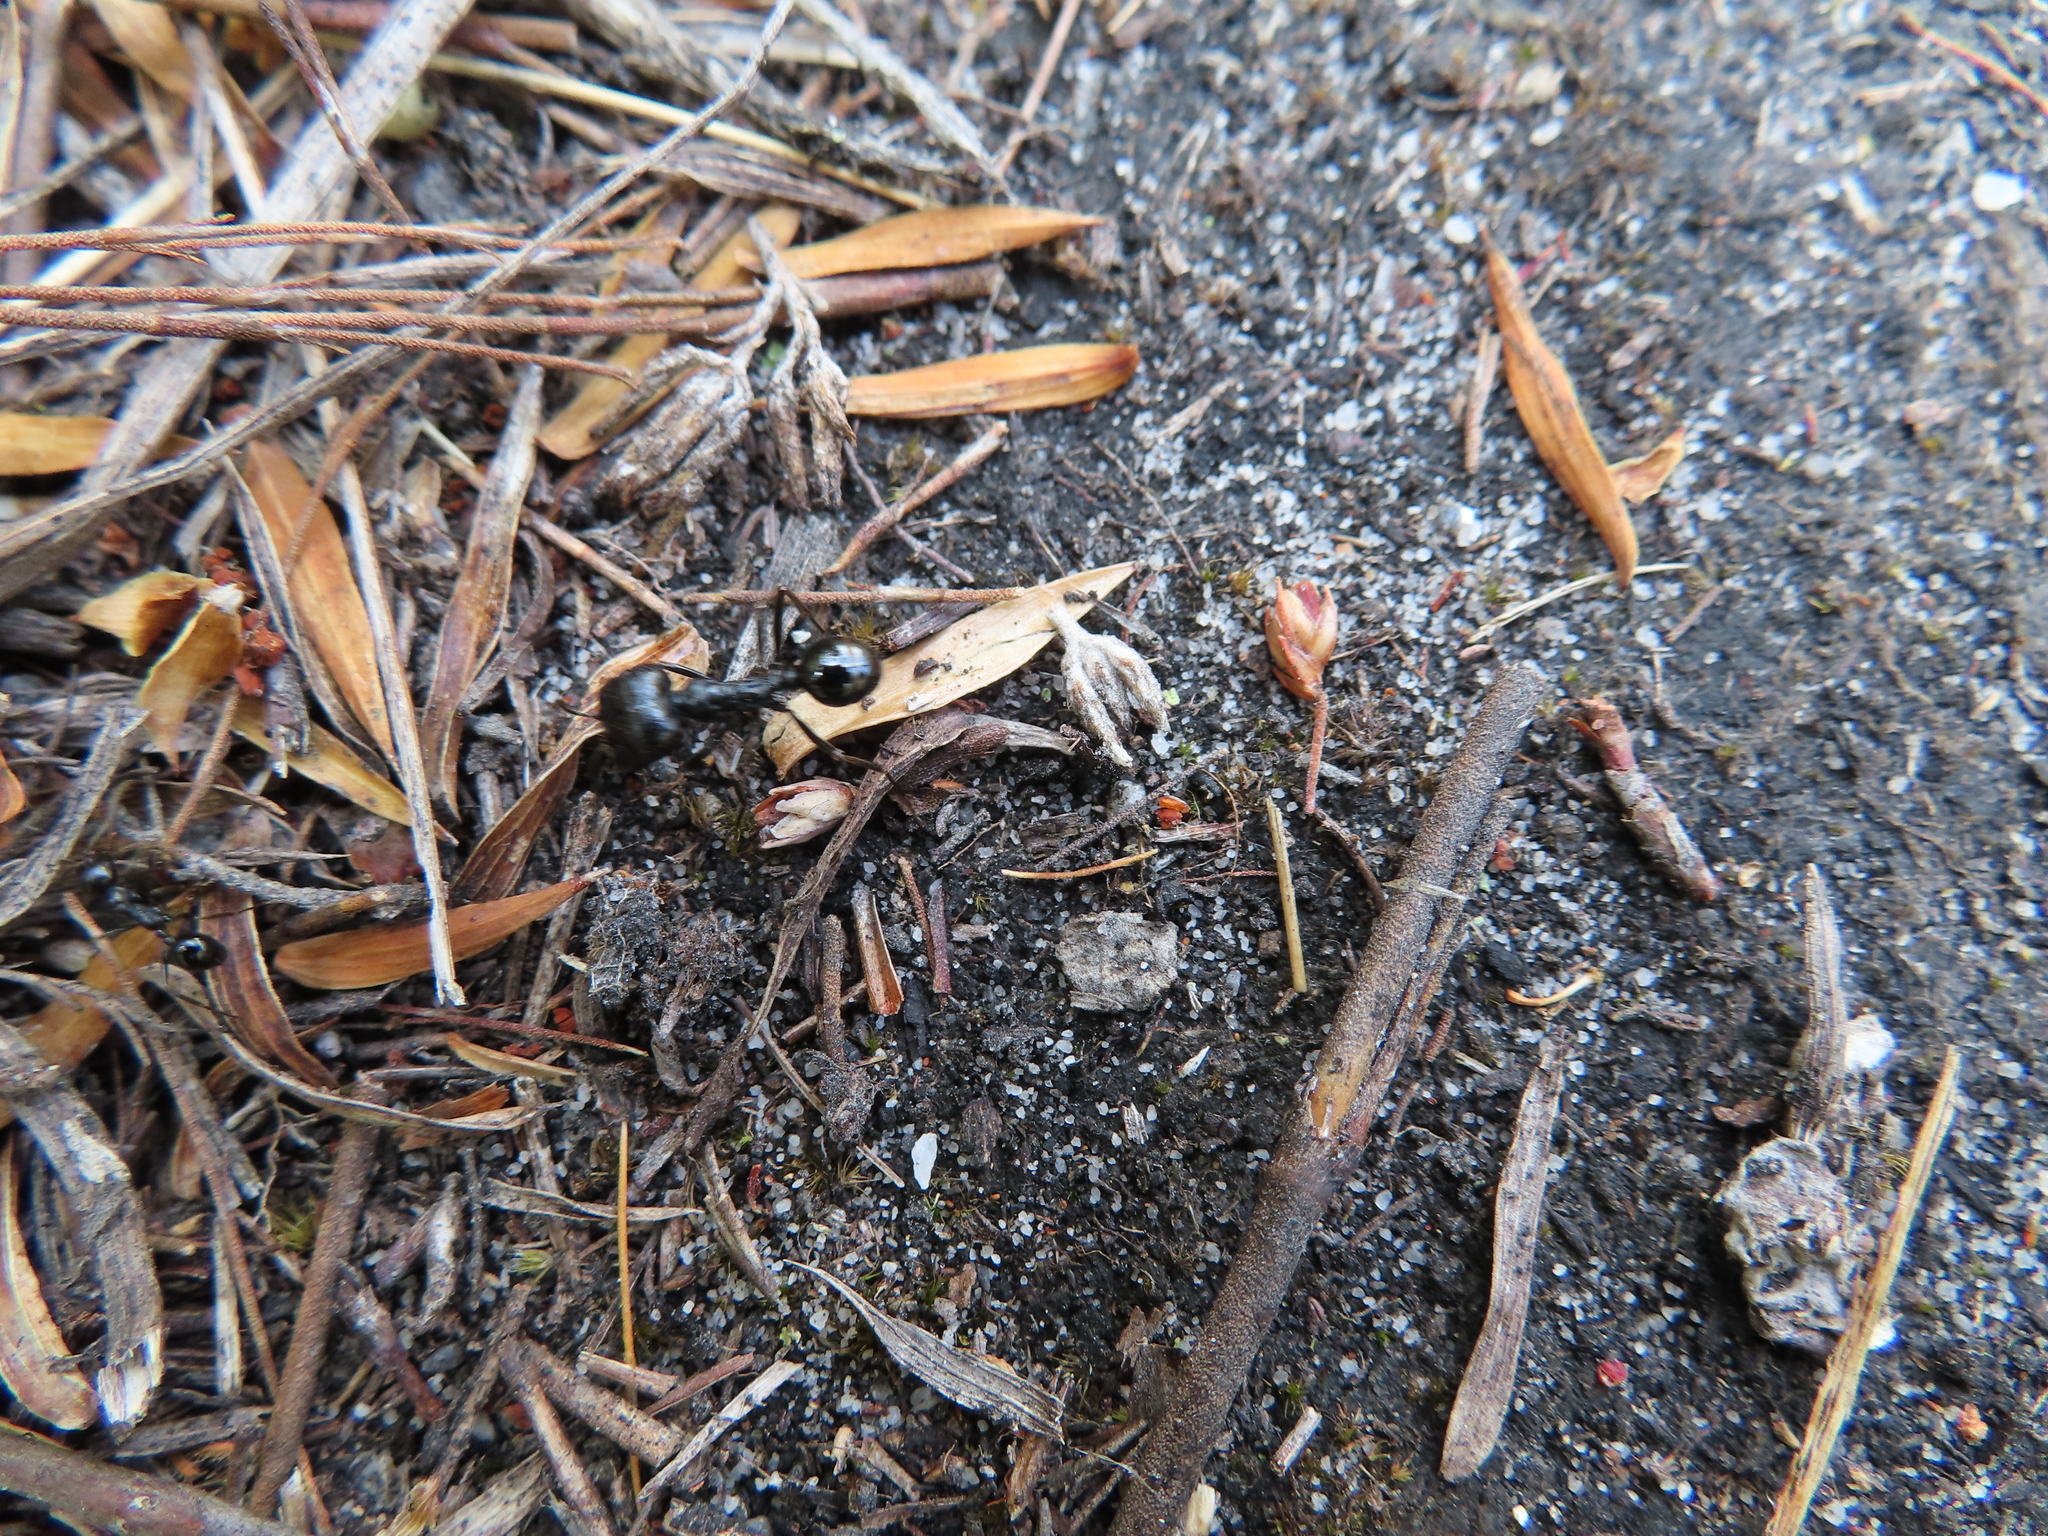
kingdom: Animalia
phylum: Arthropoda
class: Insecta
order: Hymenoptera
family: Formicidae
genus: Messor
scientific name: Messor capensis
